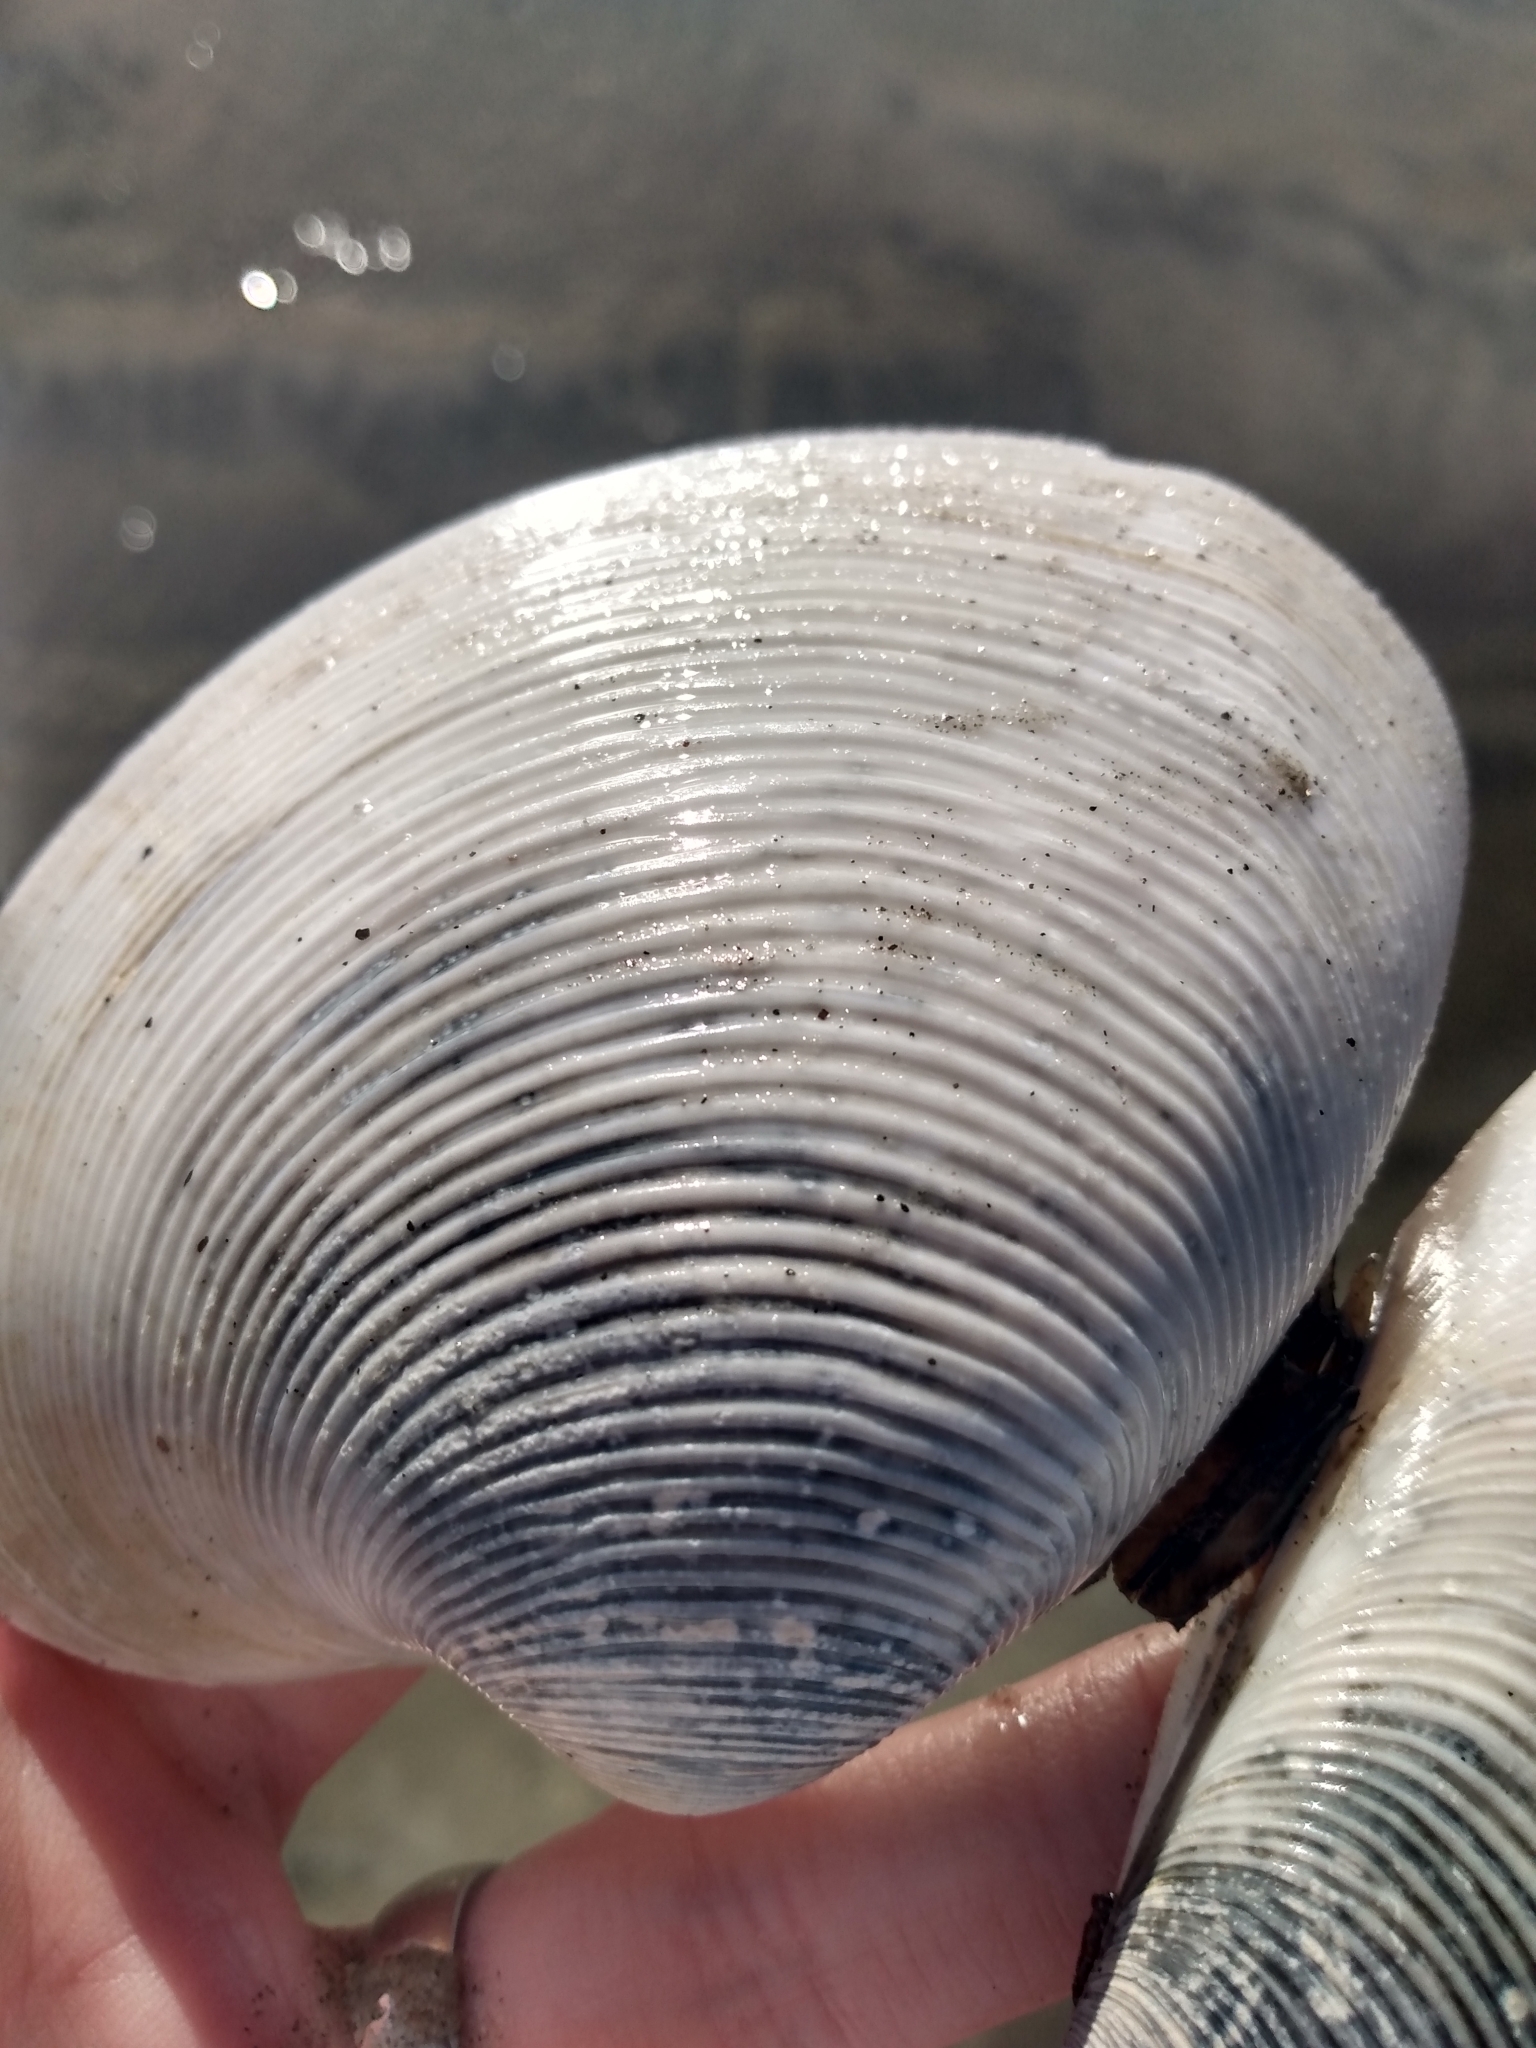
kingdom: Animalia
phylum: Mollusca
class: Bivalvia
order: Venerida
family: Veneridae
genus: Amiantis
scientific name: Amiantis callosa
